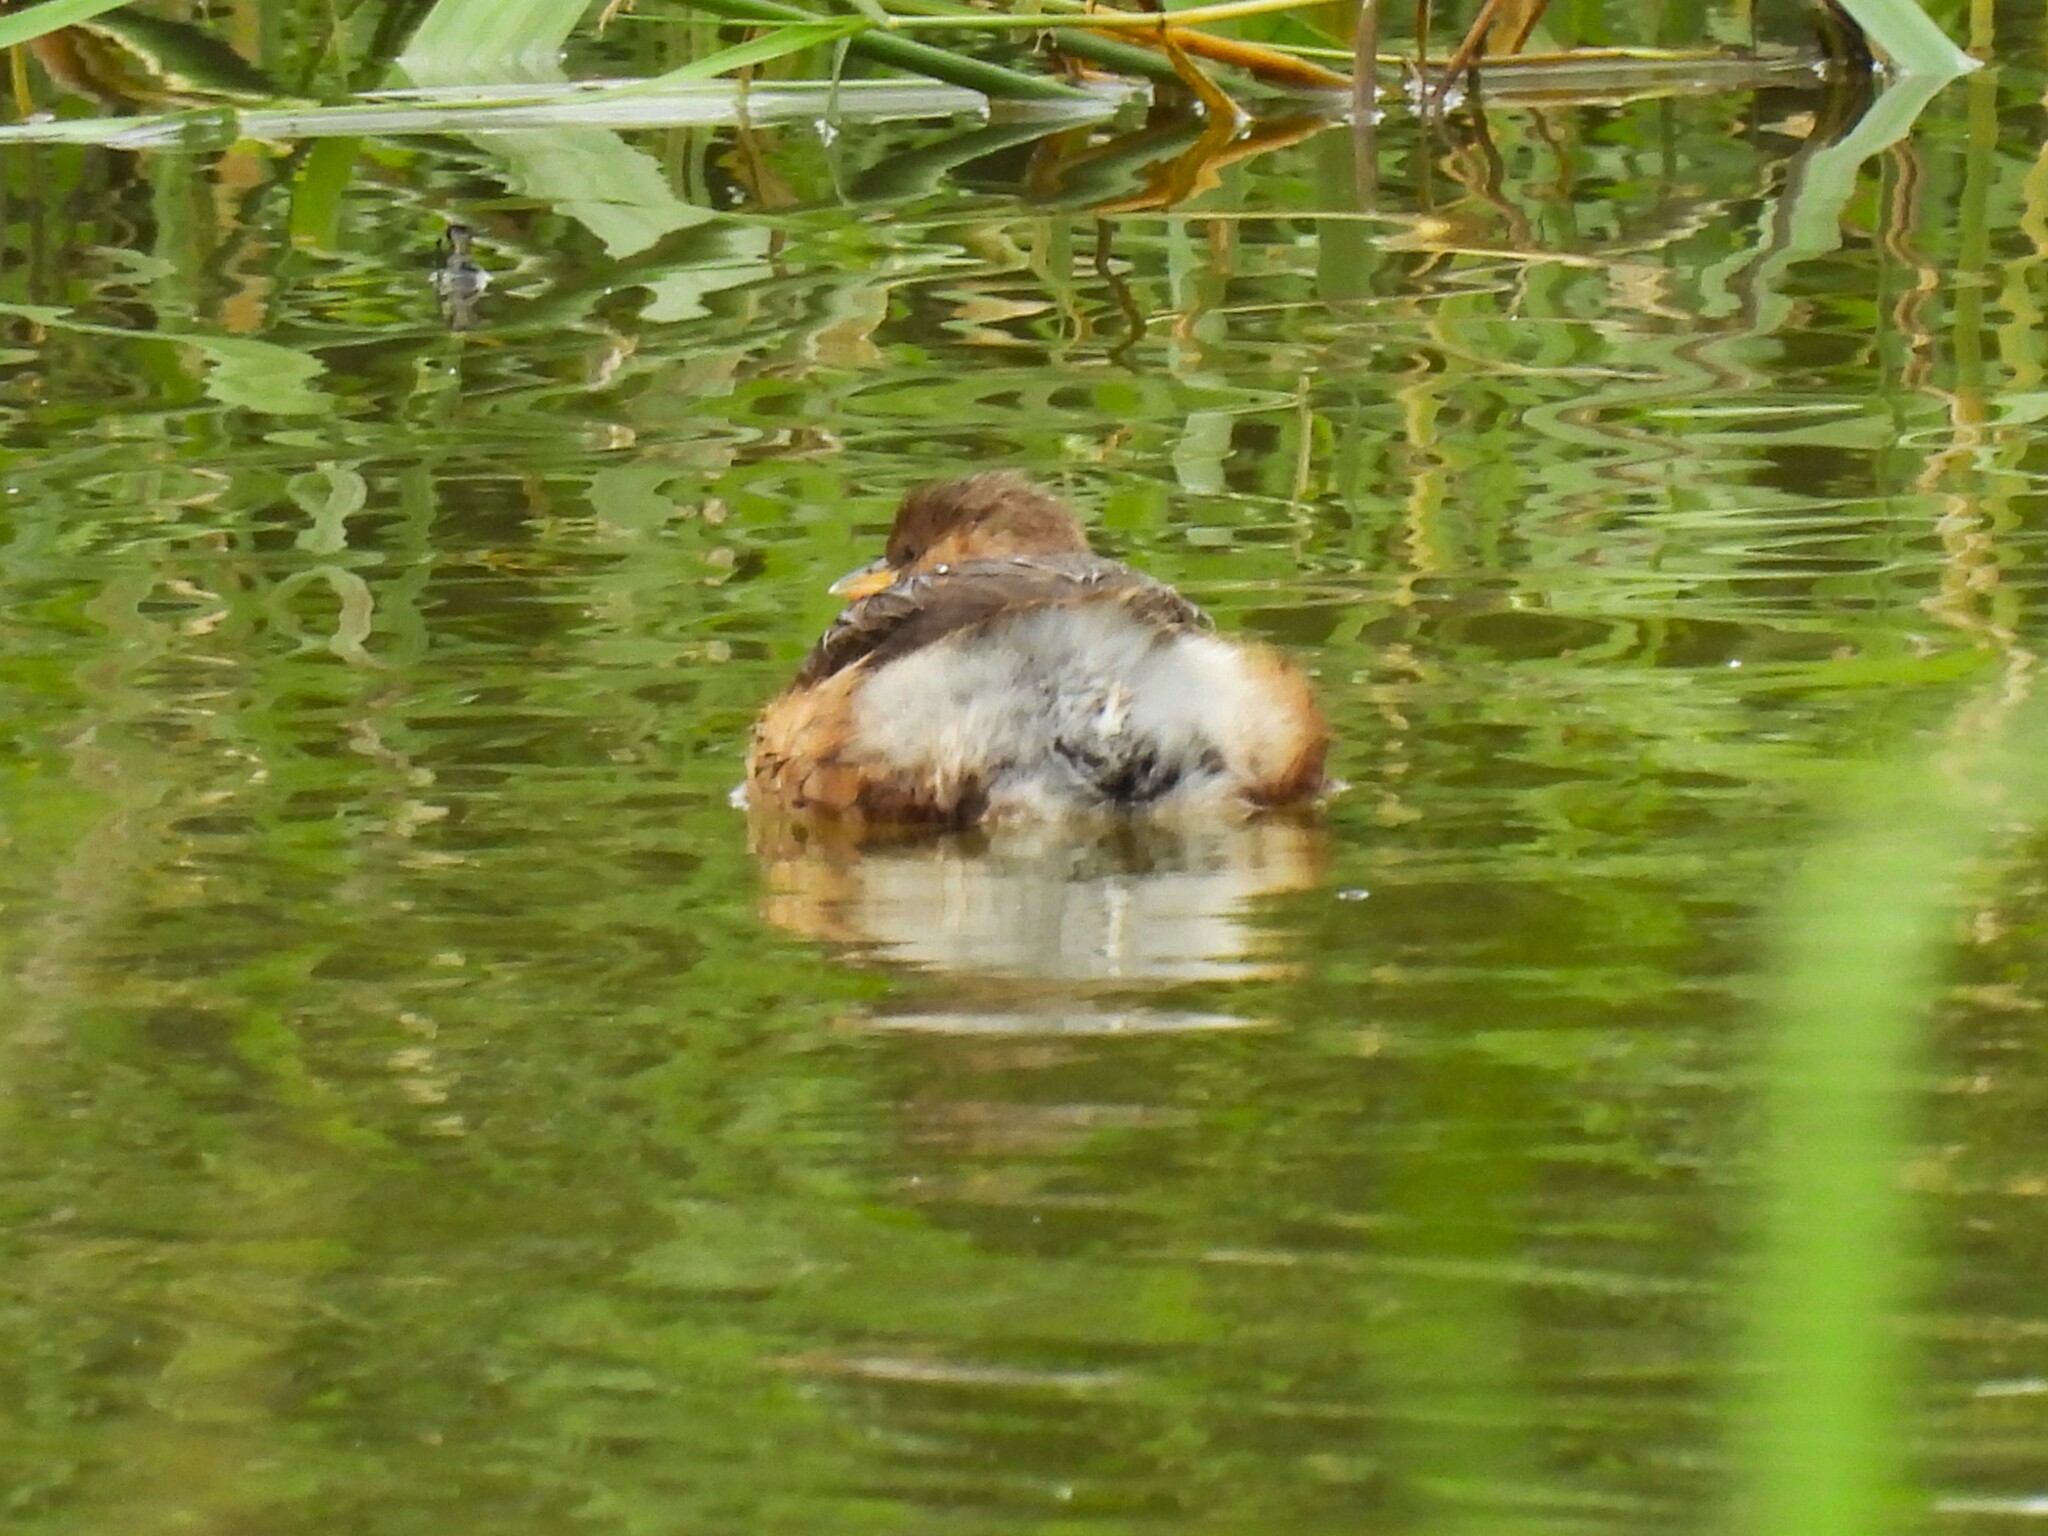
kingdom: Animalia
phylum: Chordata
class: Aves
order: Podicipediformes
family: Podicipedidae
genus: Tachybaptus
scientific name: Tachybaptus ruficollis
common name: Little grebe
